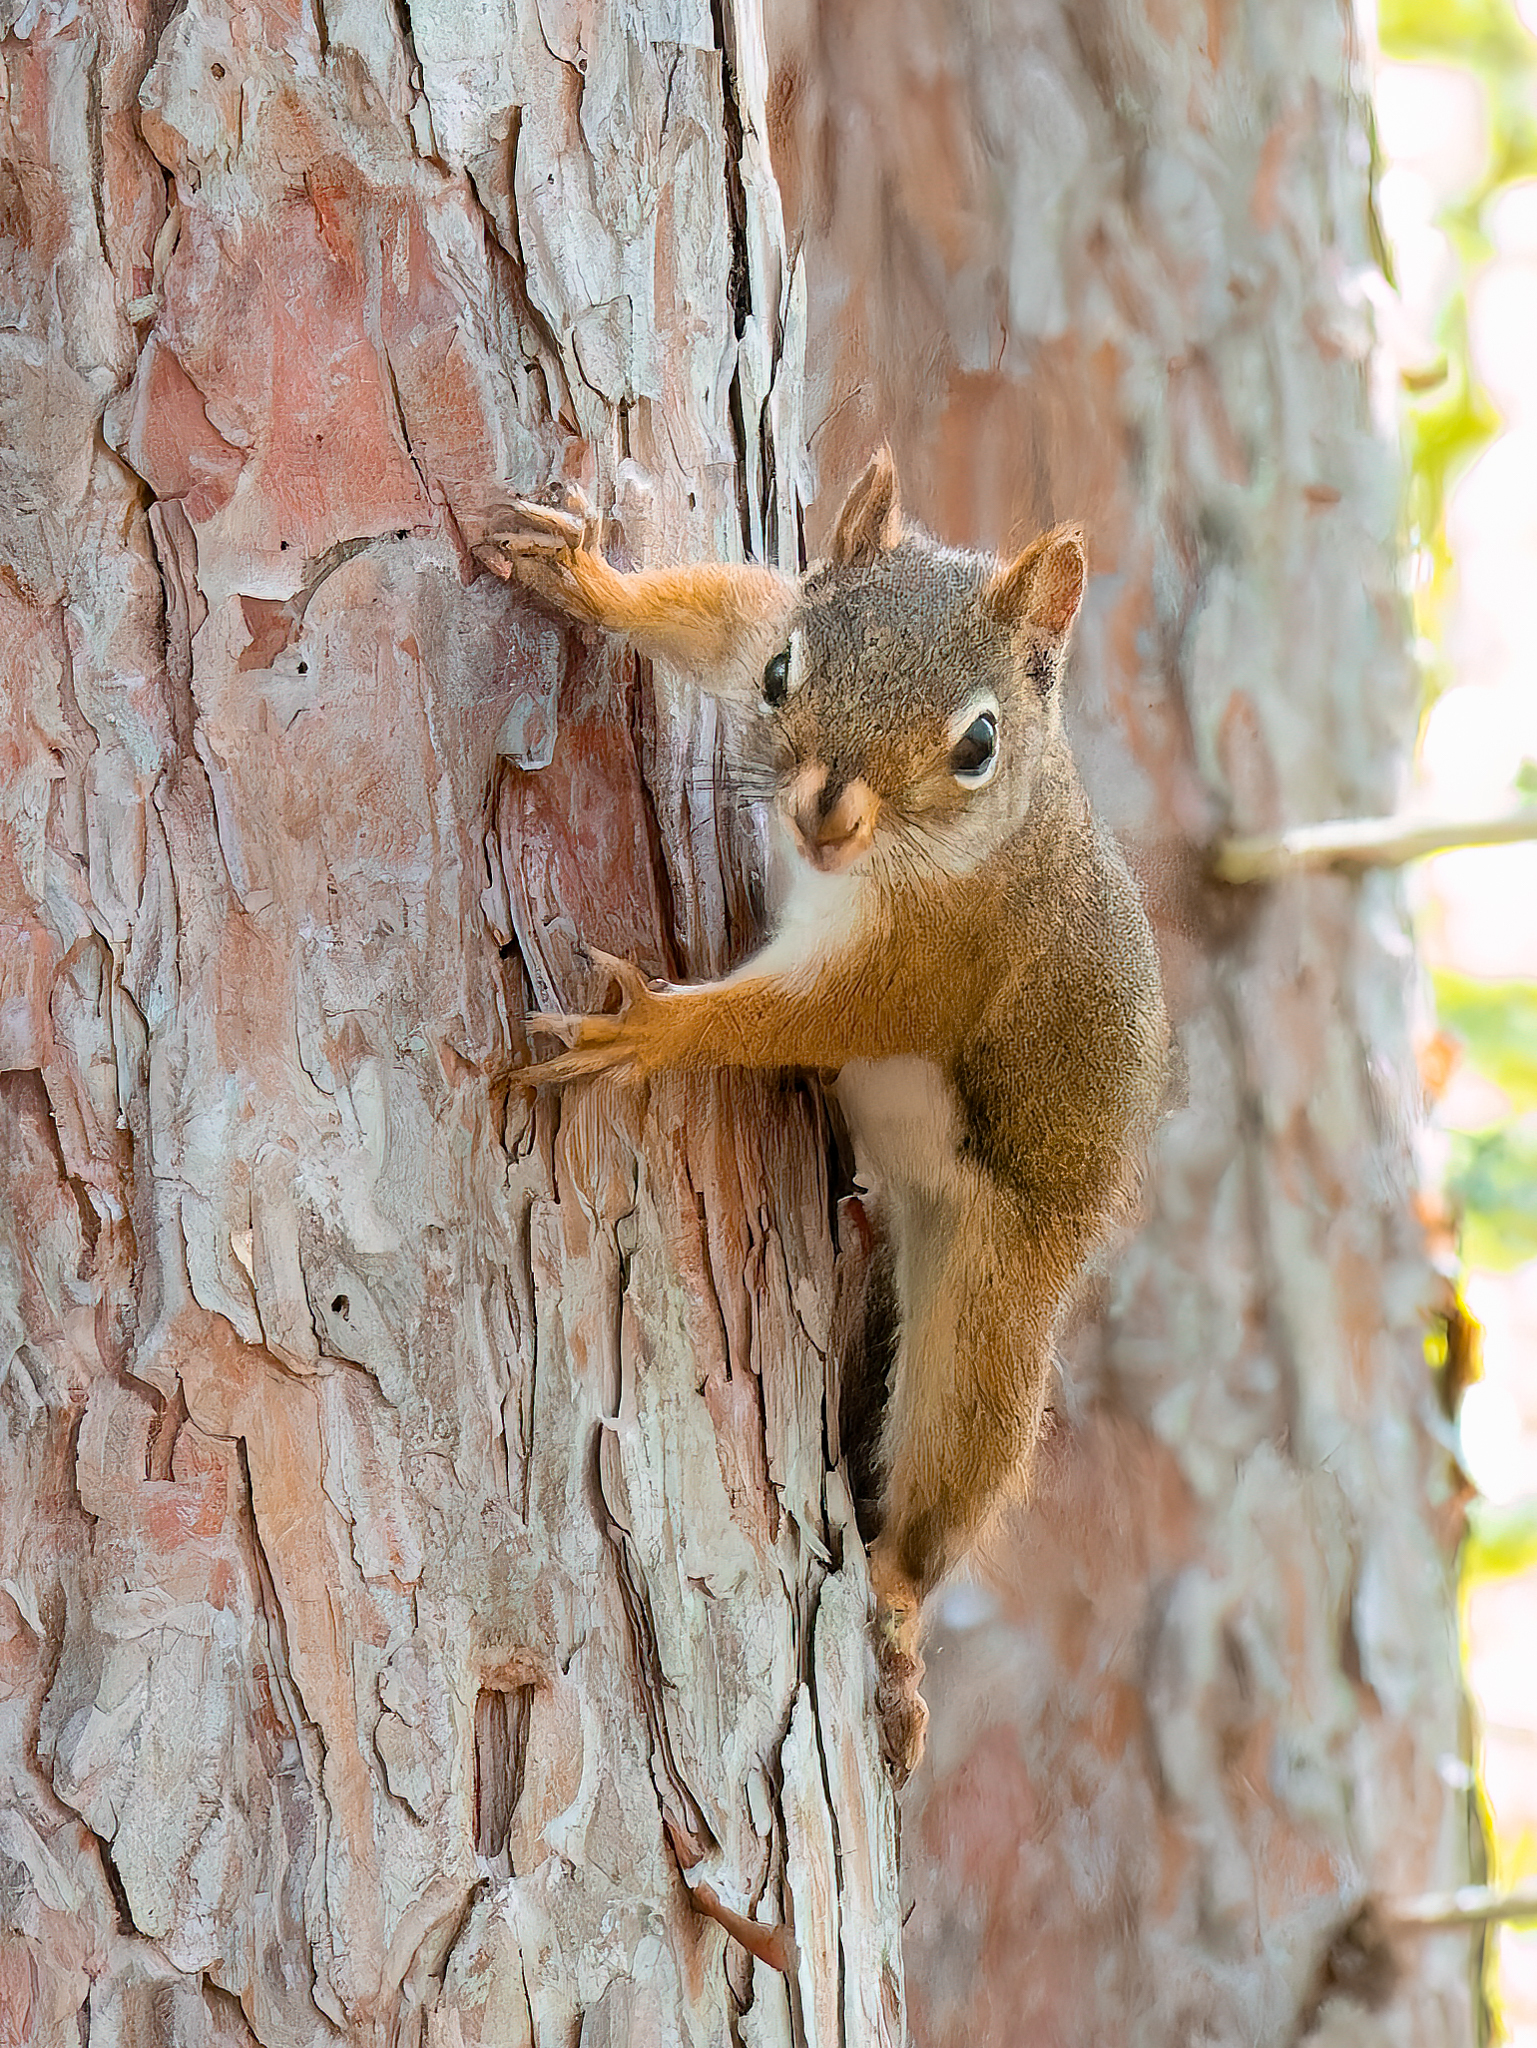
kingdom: Animalia
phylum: Chordata
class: Mammalia
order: Rodentia
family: Sciuridae
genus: Tamiasciurus
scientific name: Tamiasciurus hudsonicus
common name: Red squirrel
